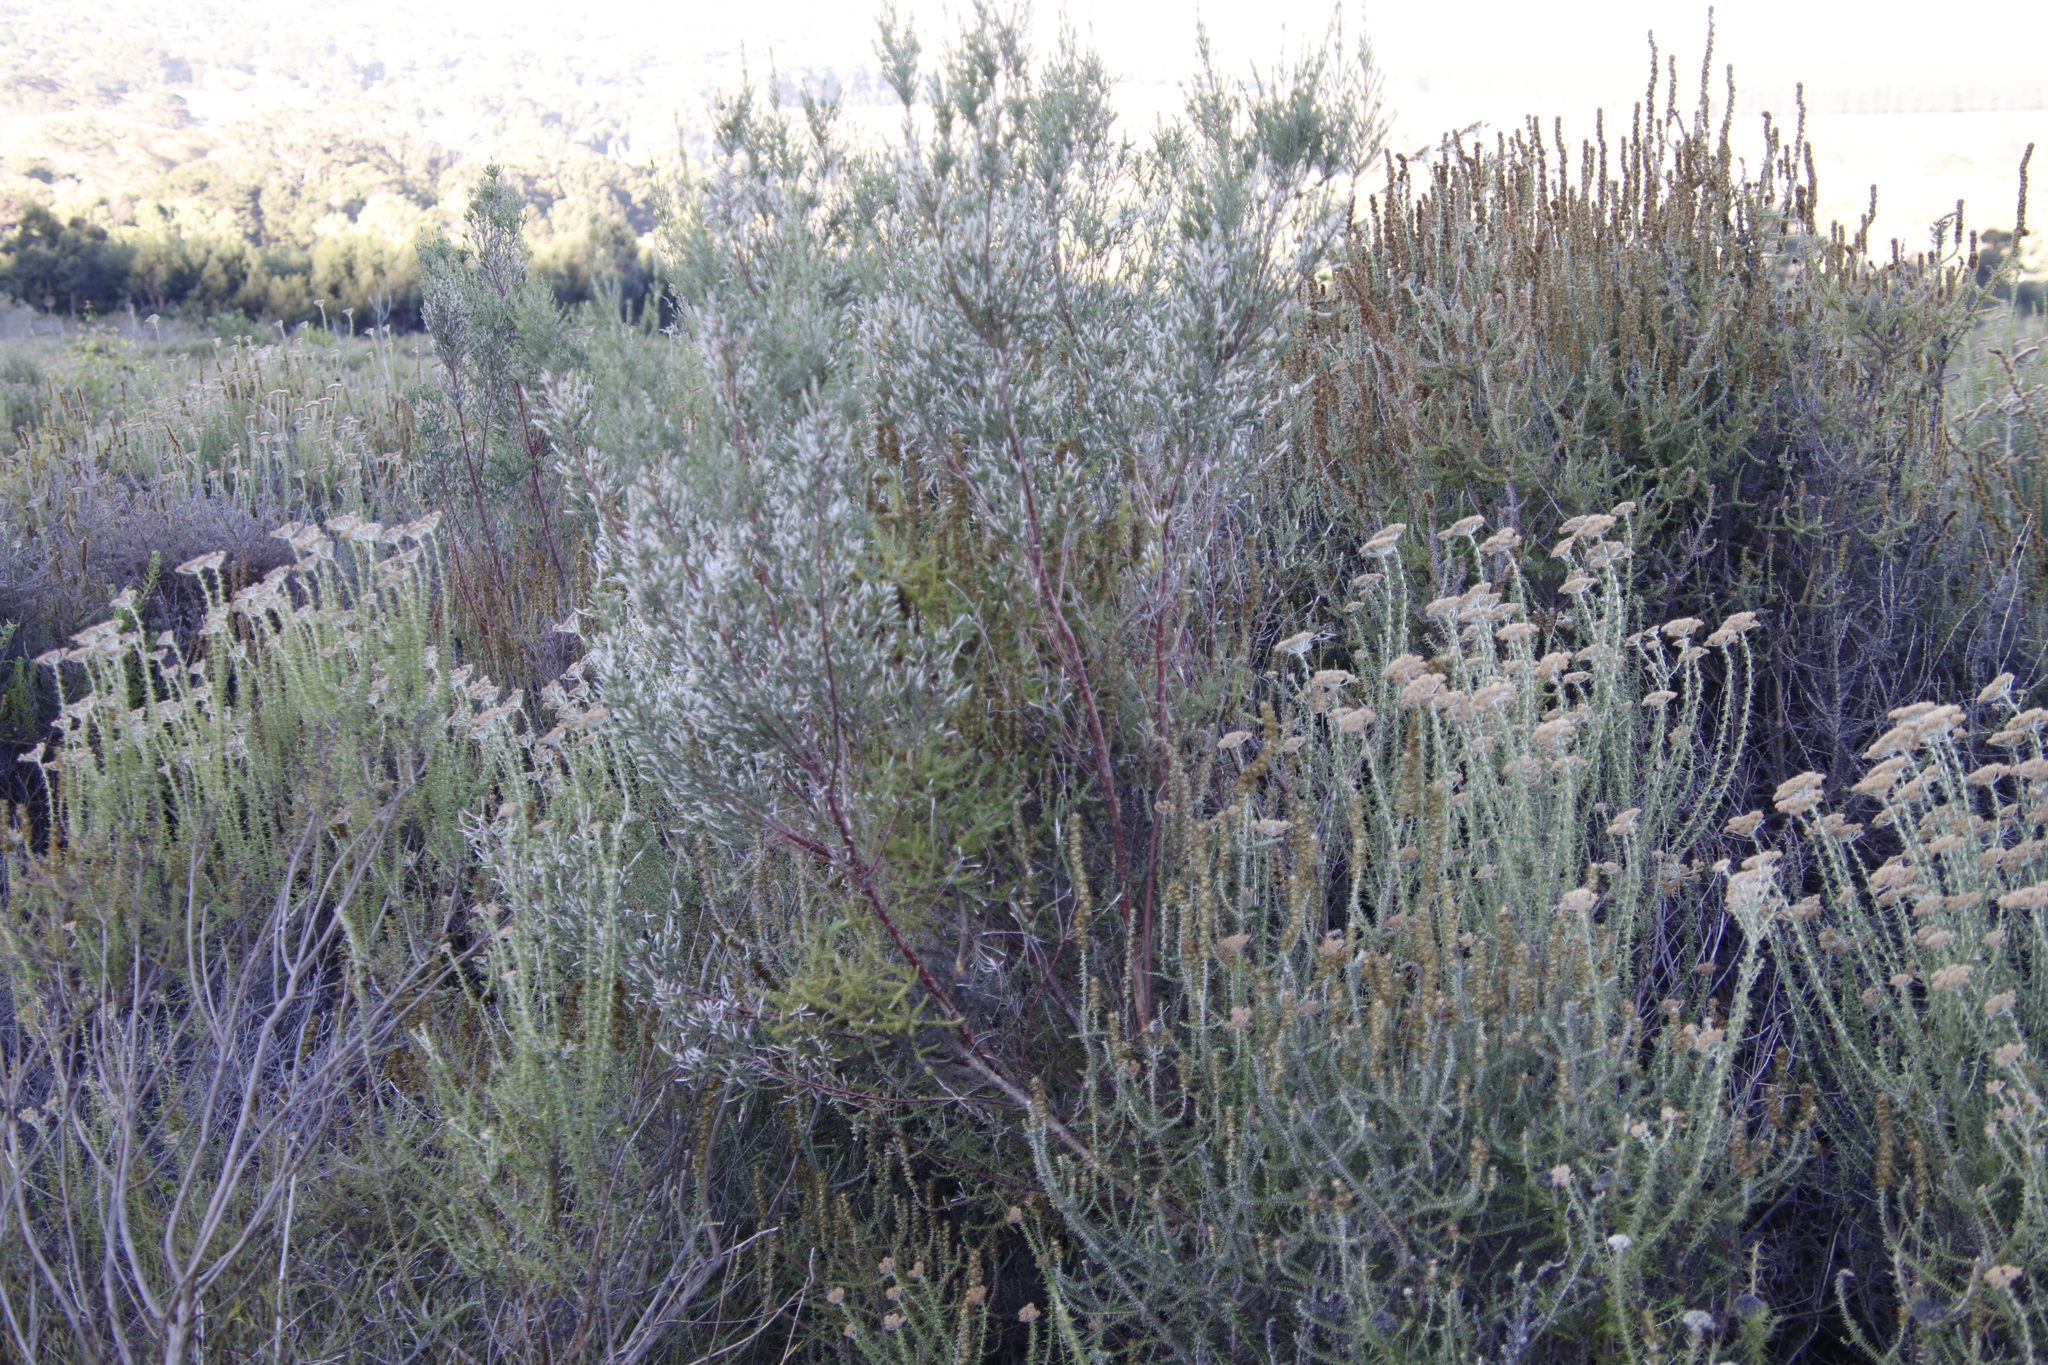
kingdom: Plantae
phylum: Tracheophyta
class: Magnoliopsida
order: Malvales
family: Thymelaeaceae
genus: Passerina
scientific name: Passerina corymbosa
